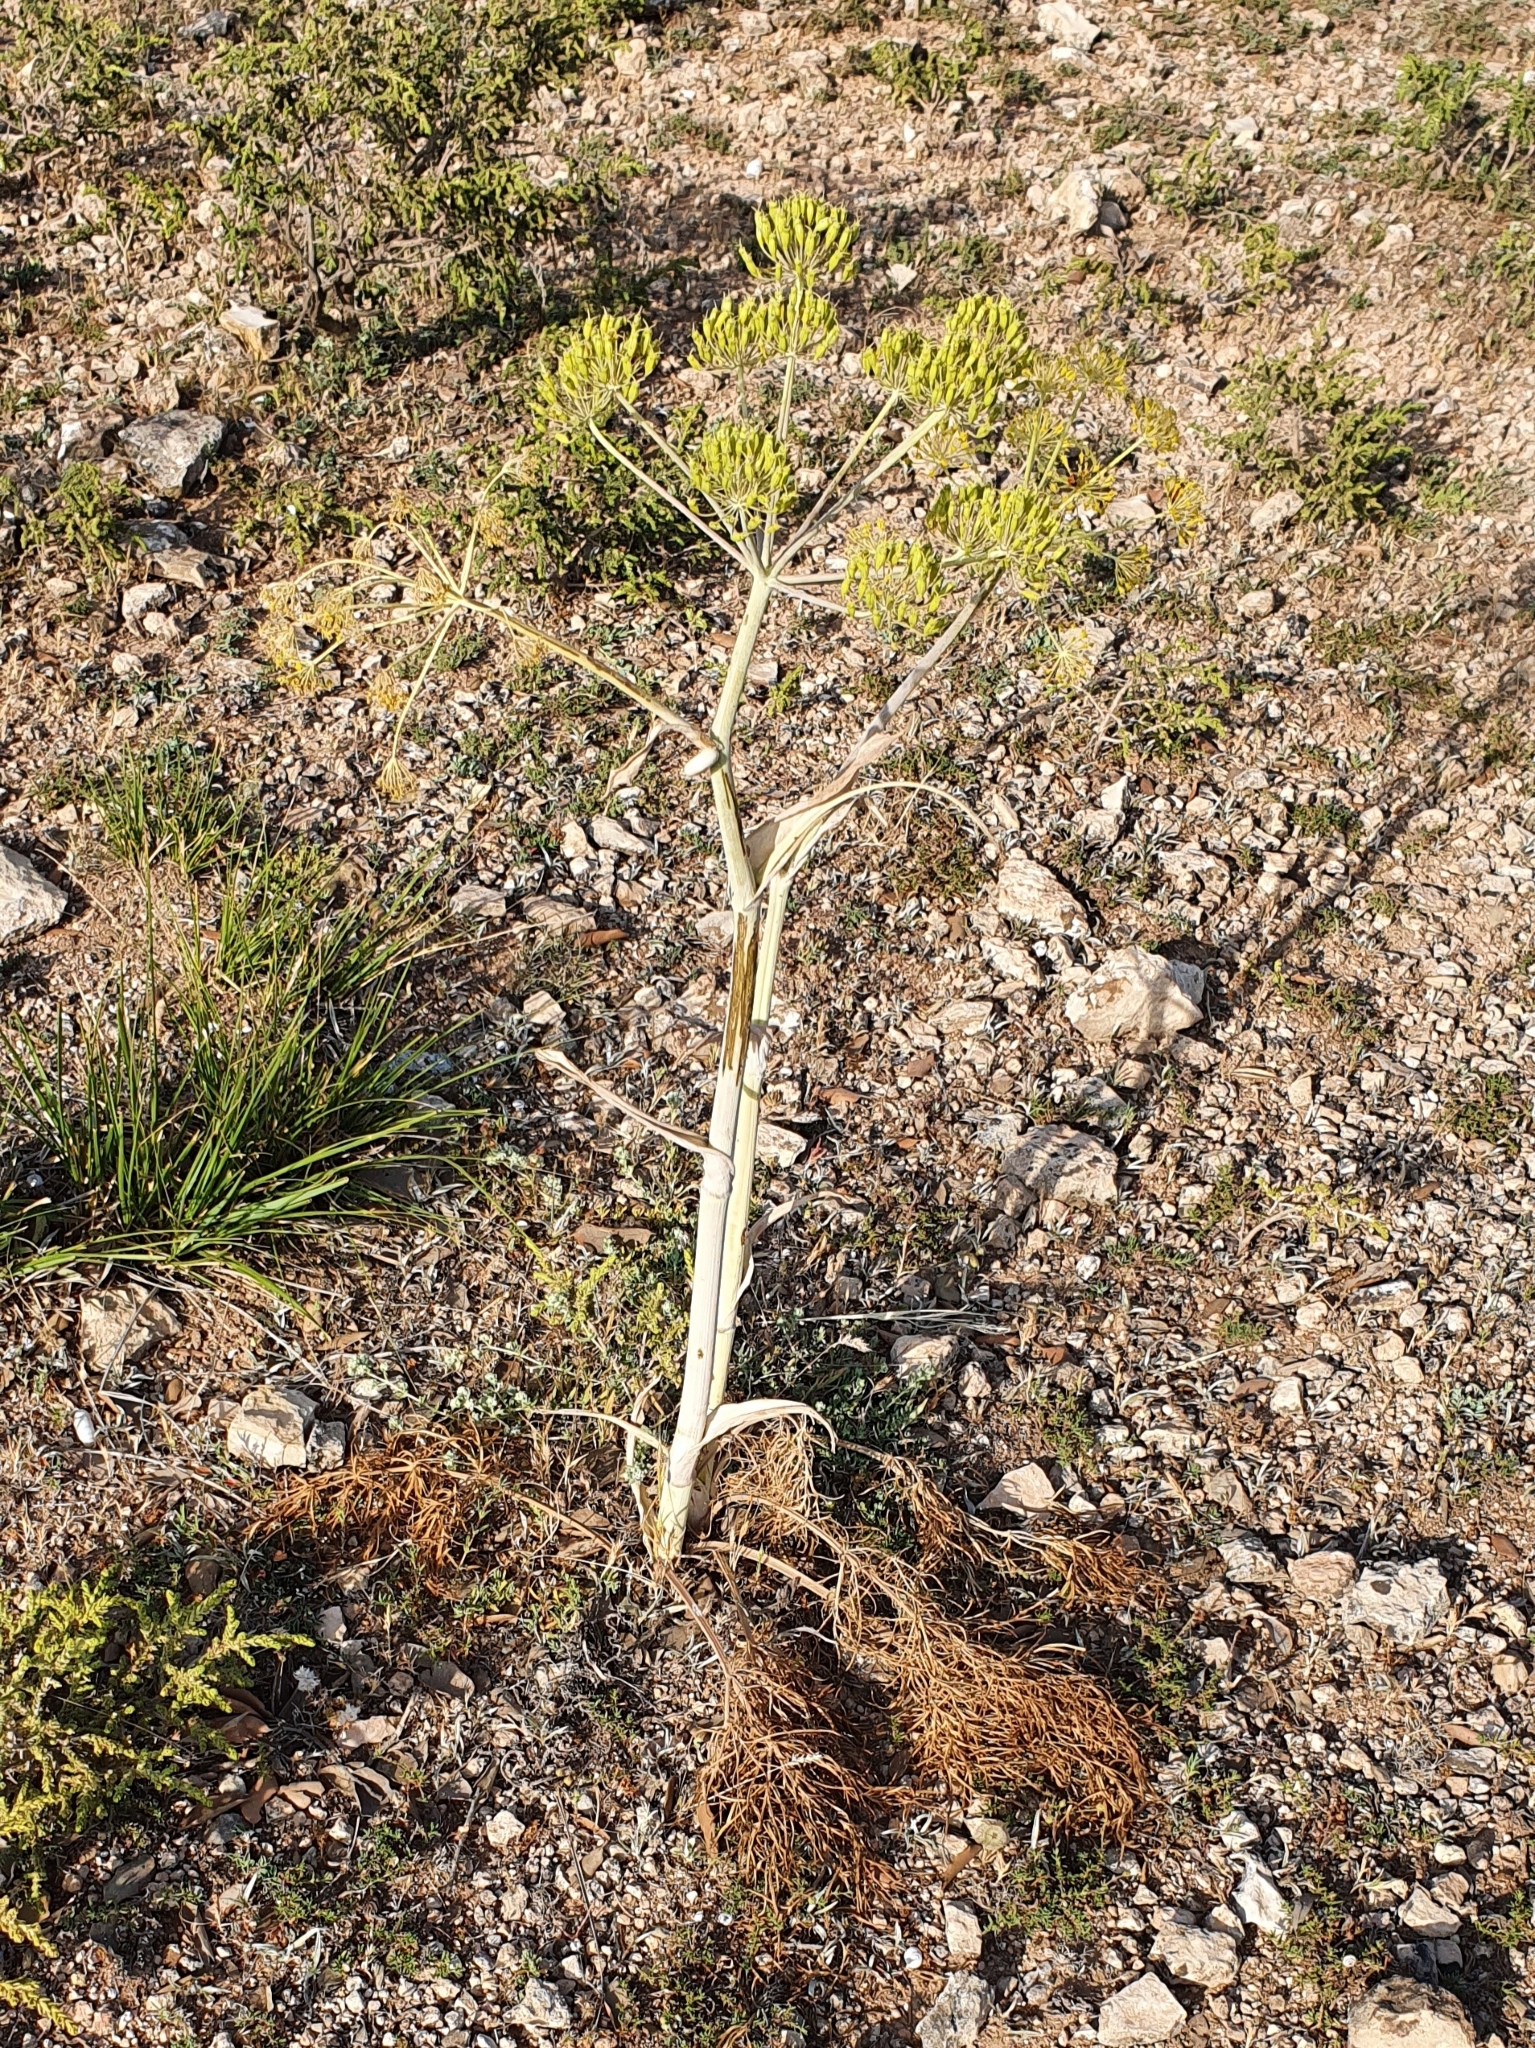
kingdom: Plantae
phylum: Tracheophyta
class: Magnoliopsida
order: Apiales
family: Apiaceae
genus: Thapsia
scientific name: Thapsia garganica
